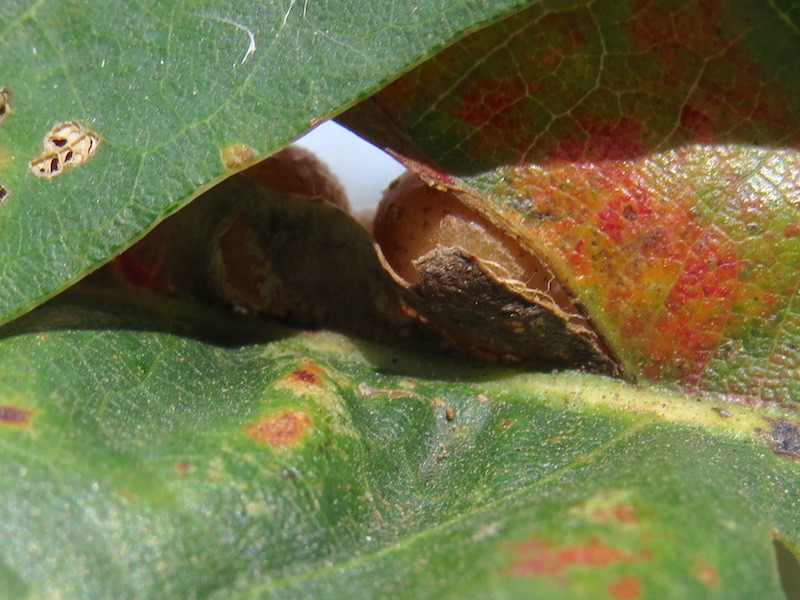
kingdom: Animalia
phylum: Arthropoda
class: Insecta
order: Hymenoptera
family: Cynipidae
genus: Andricus
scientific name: Andricus
